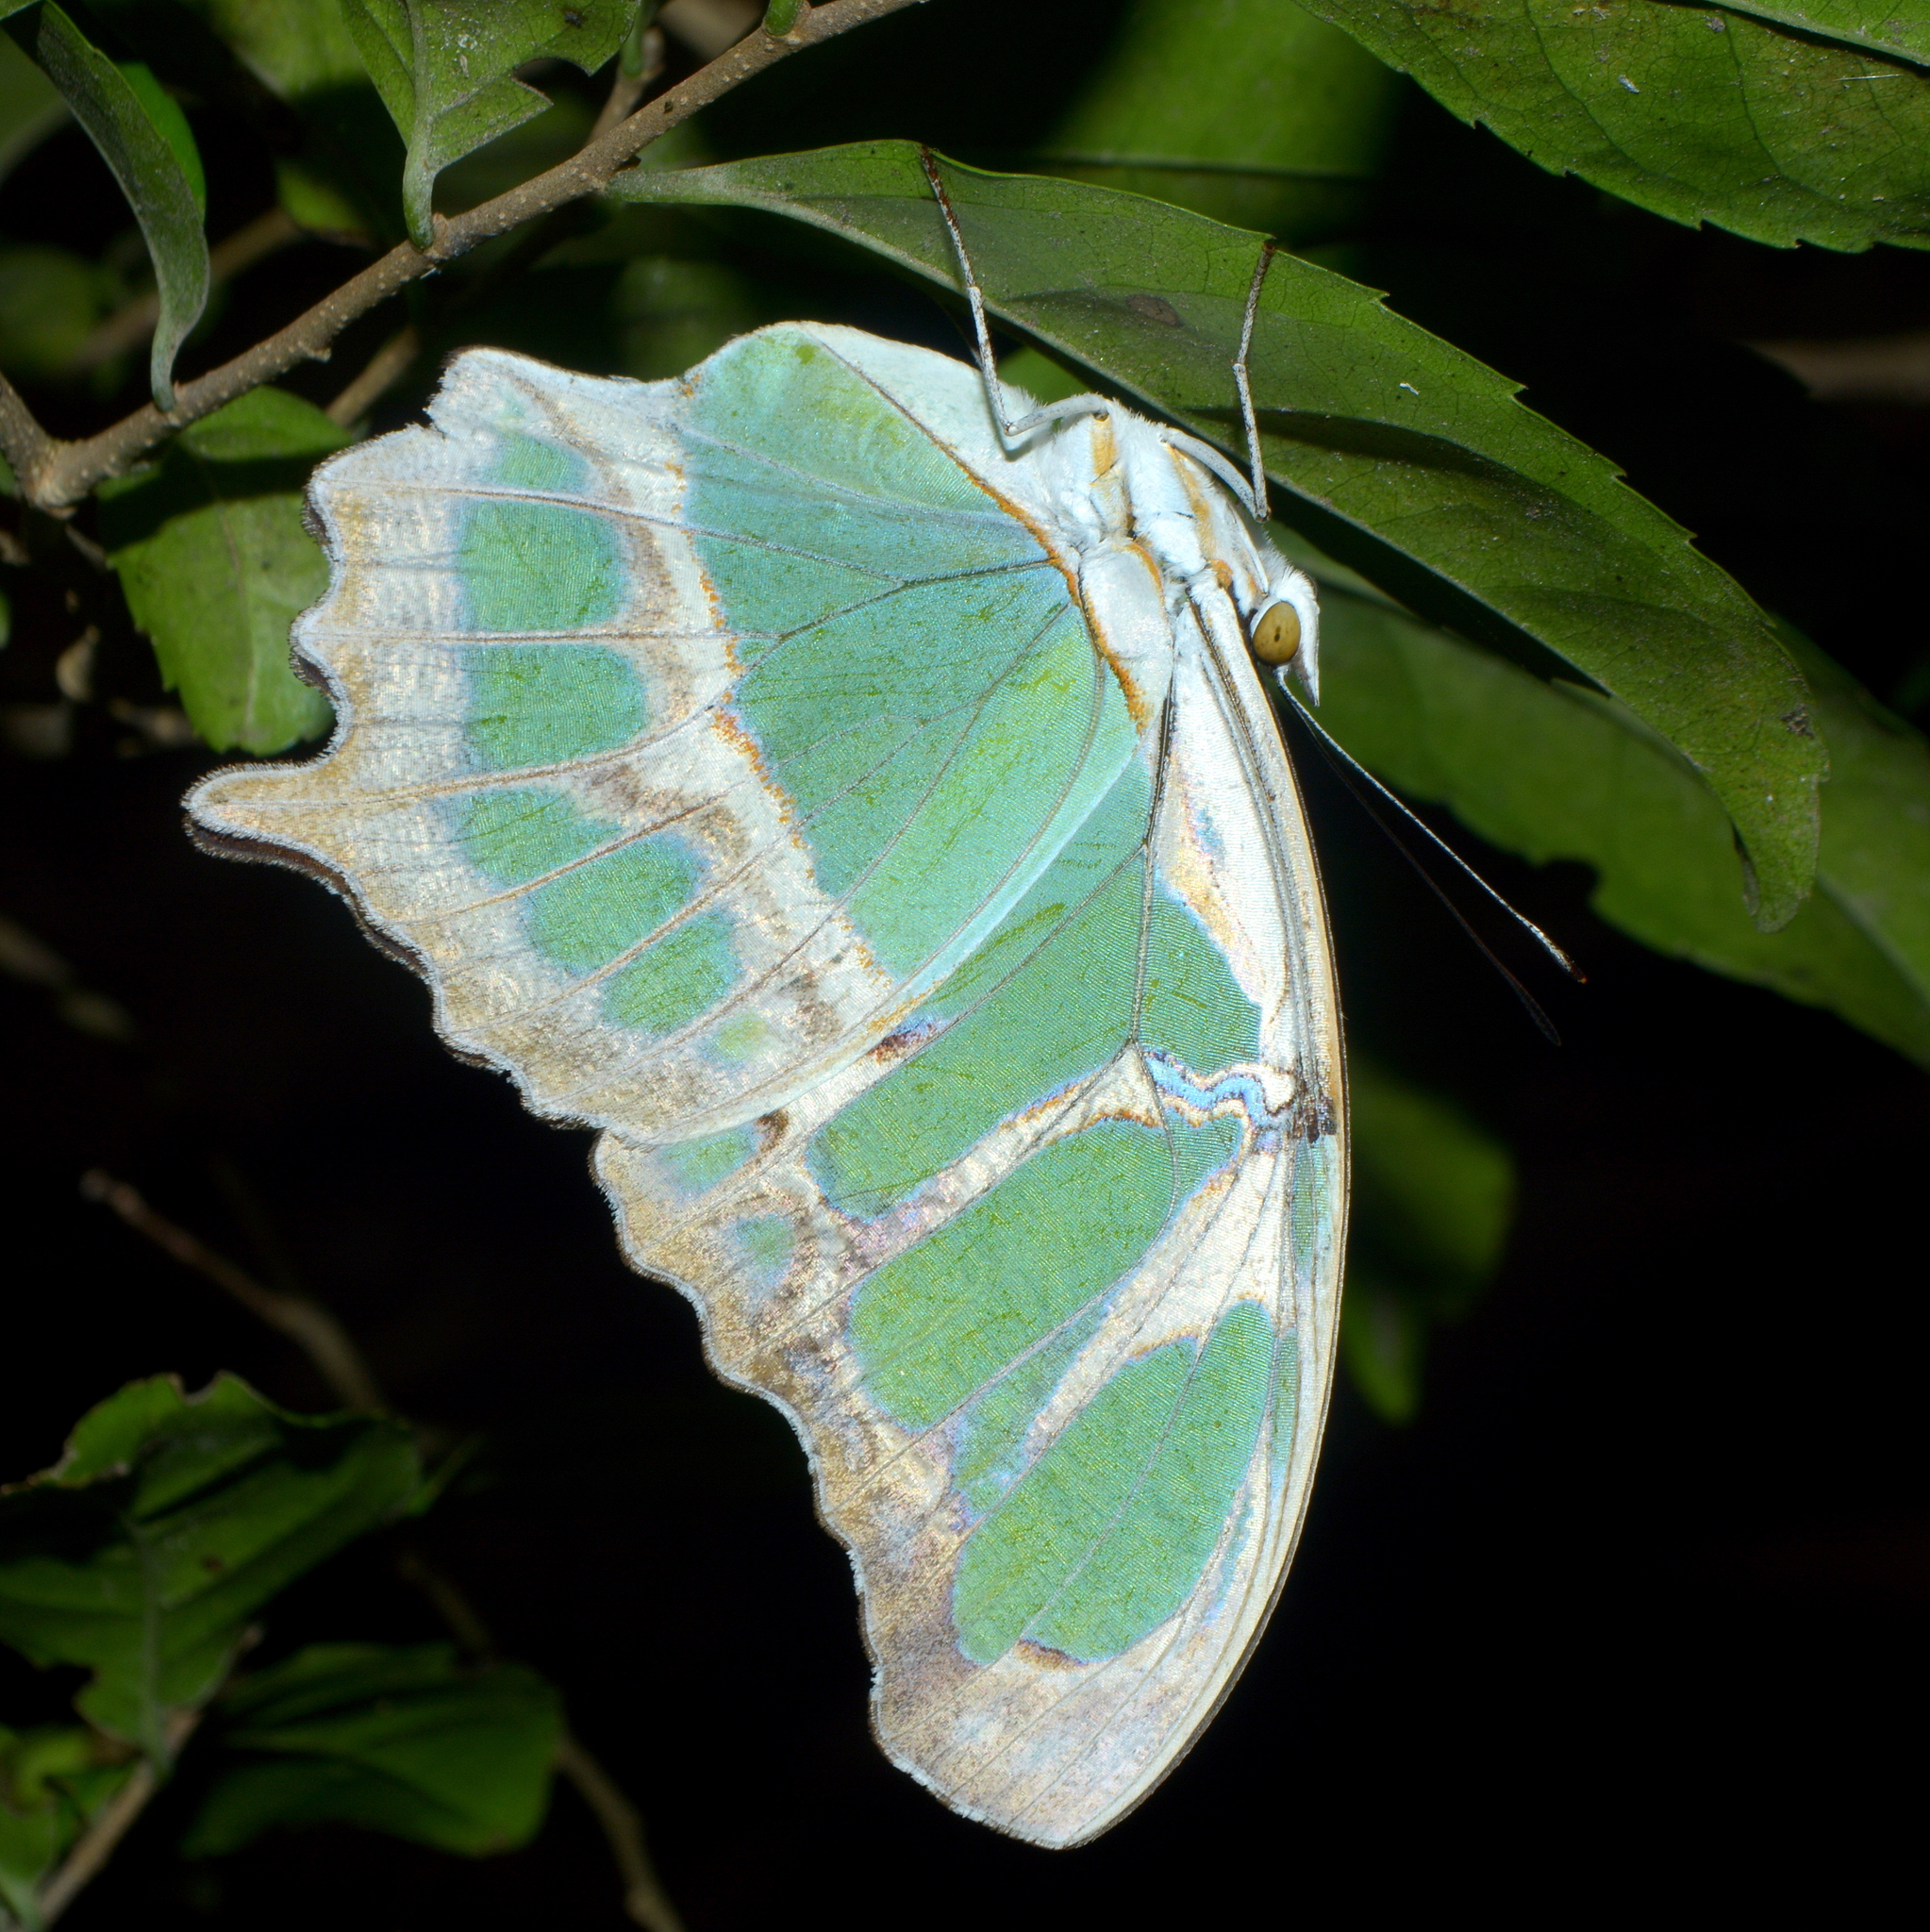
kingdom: Animalia
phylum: Arthropoda
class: Insecta
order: Lepidoptera
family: Nymphalidae
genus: Siproeta
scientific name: Siproeta stelenes
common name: Malachite
